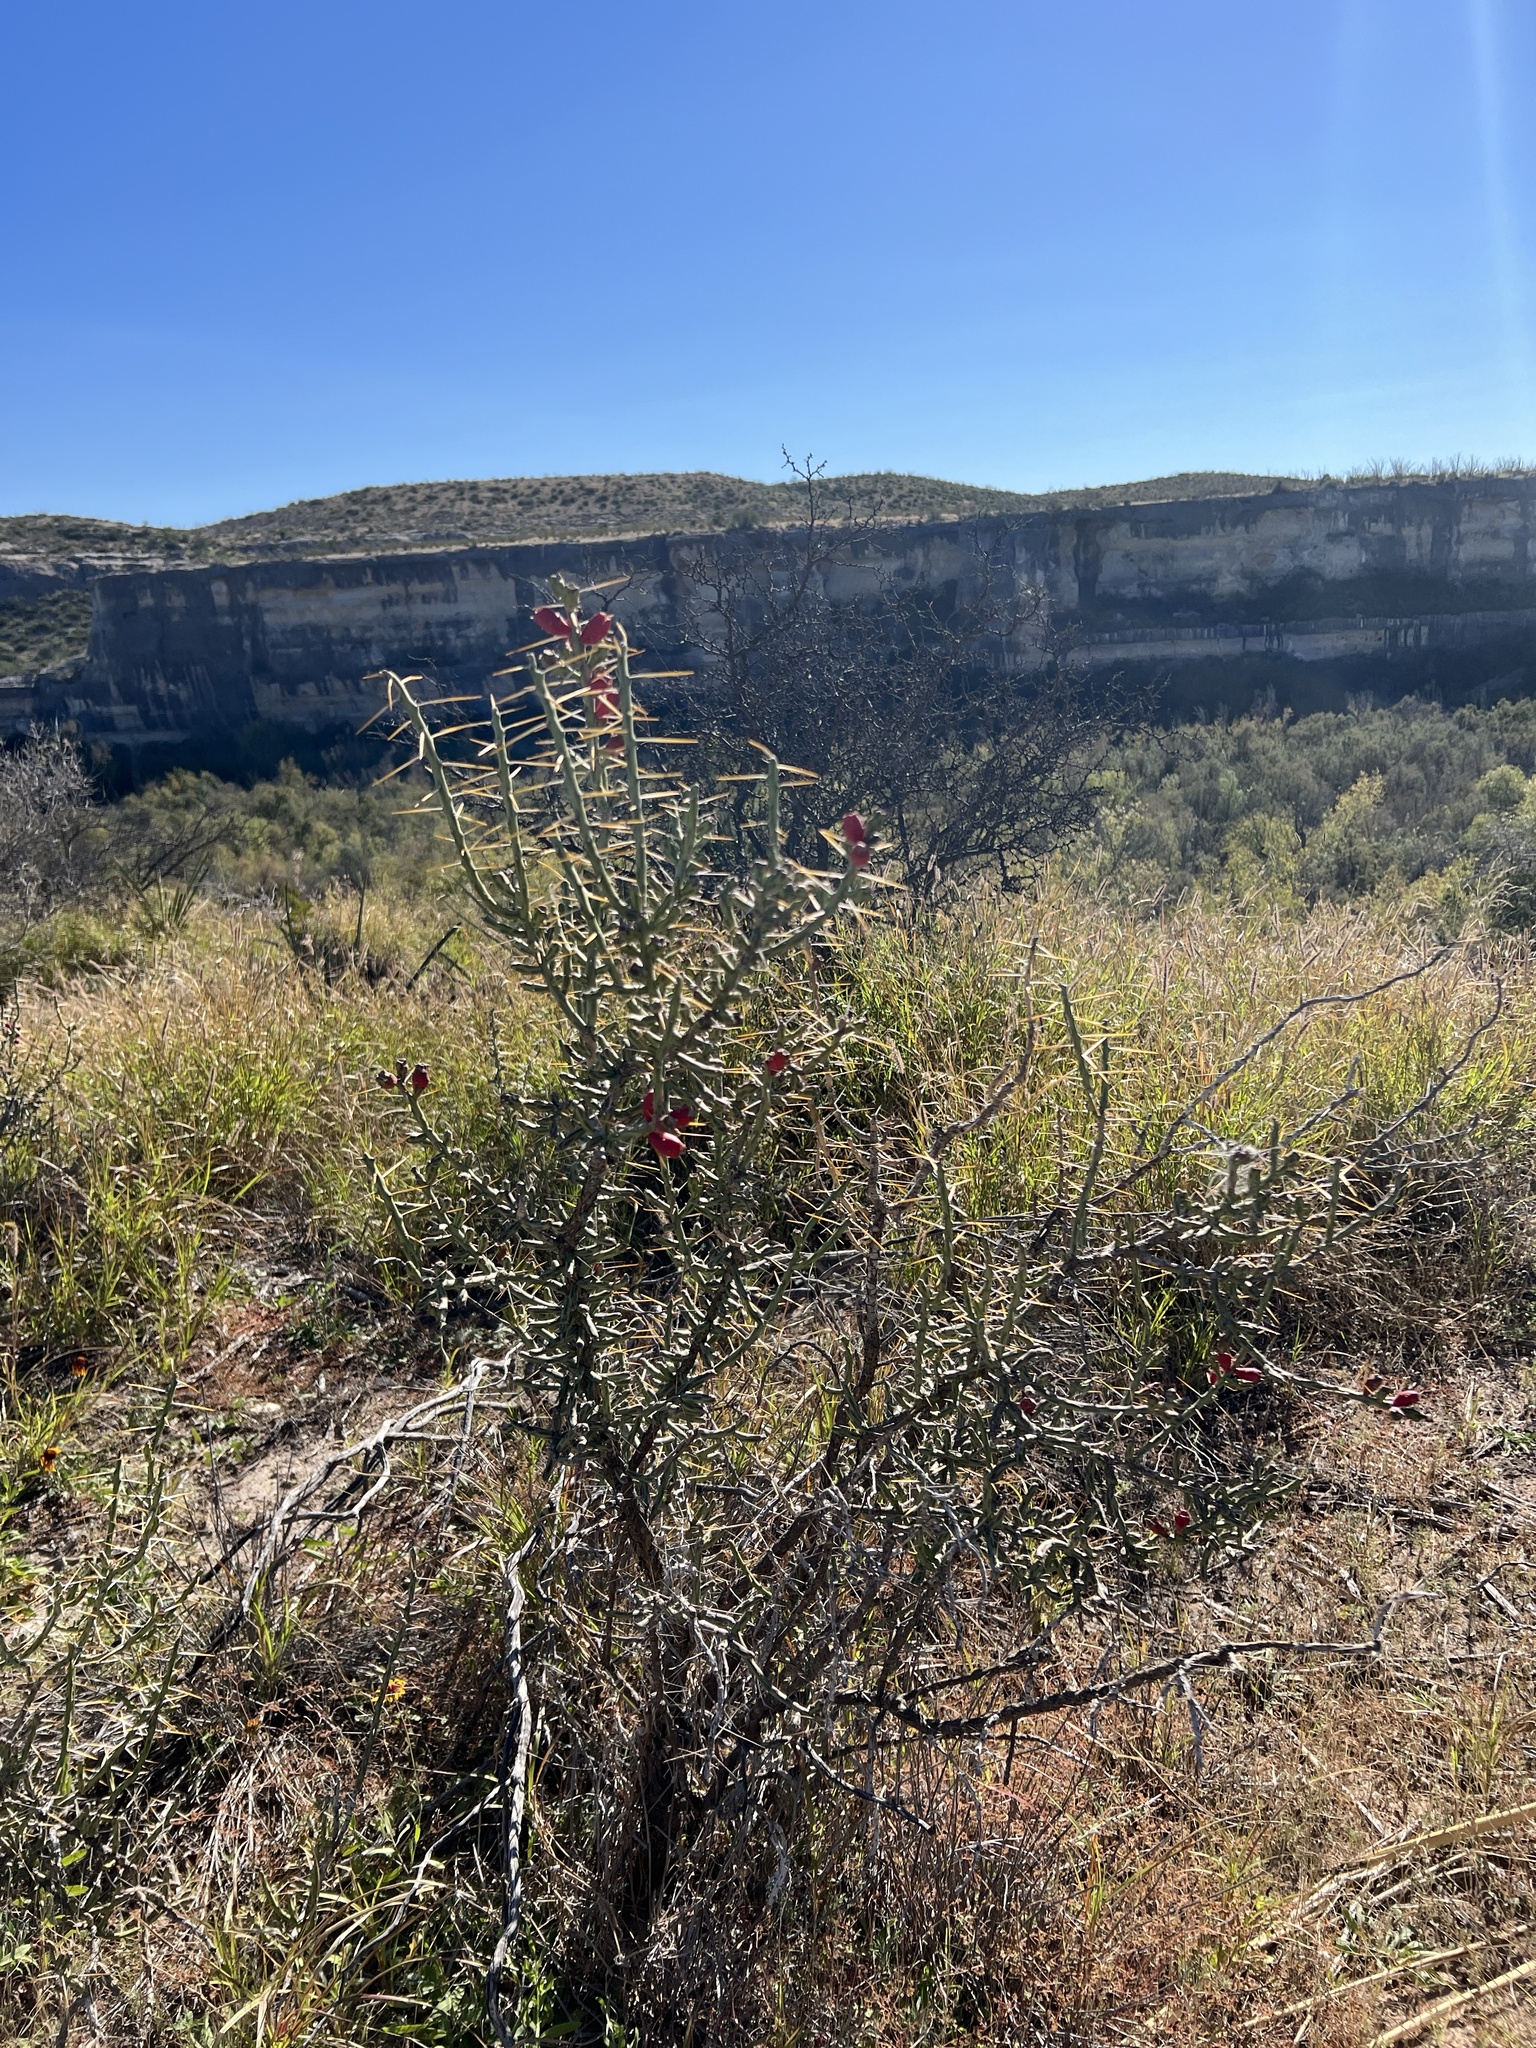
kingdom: Plantae
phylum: Tracheophyta
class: Magnoliopsida
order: Caryophyllales
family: Cactaceae
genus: Cylindropuntia
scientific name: Cylindropuntia leptocaulis
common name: Christmas cactus
